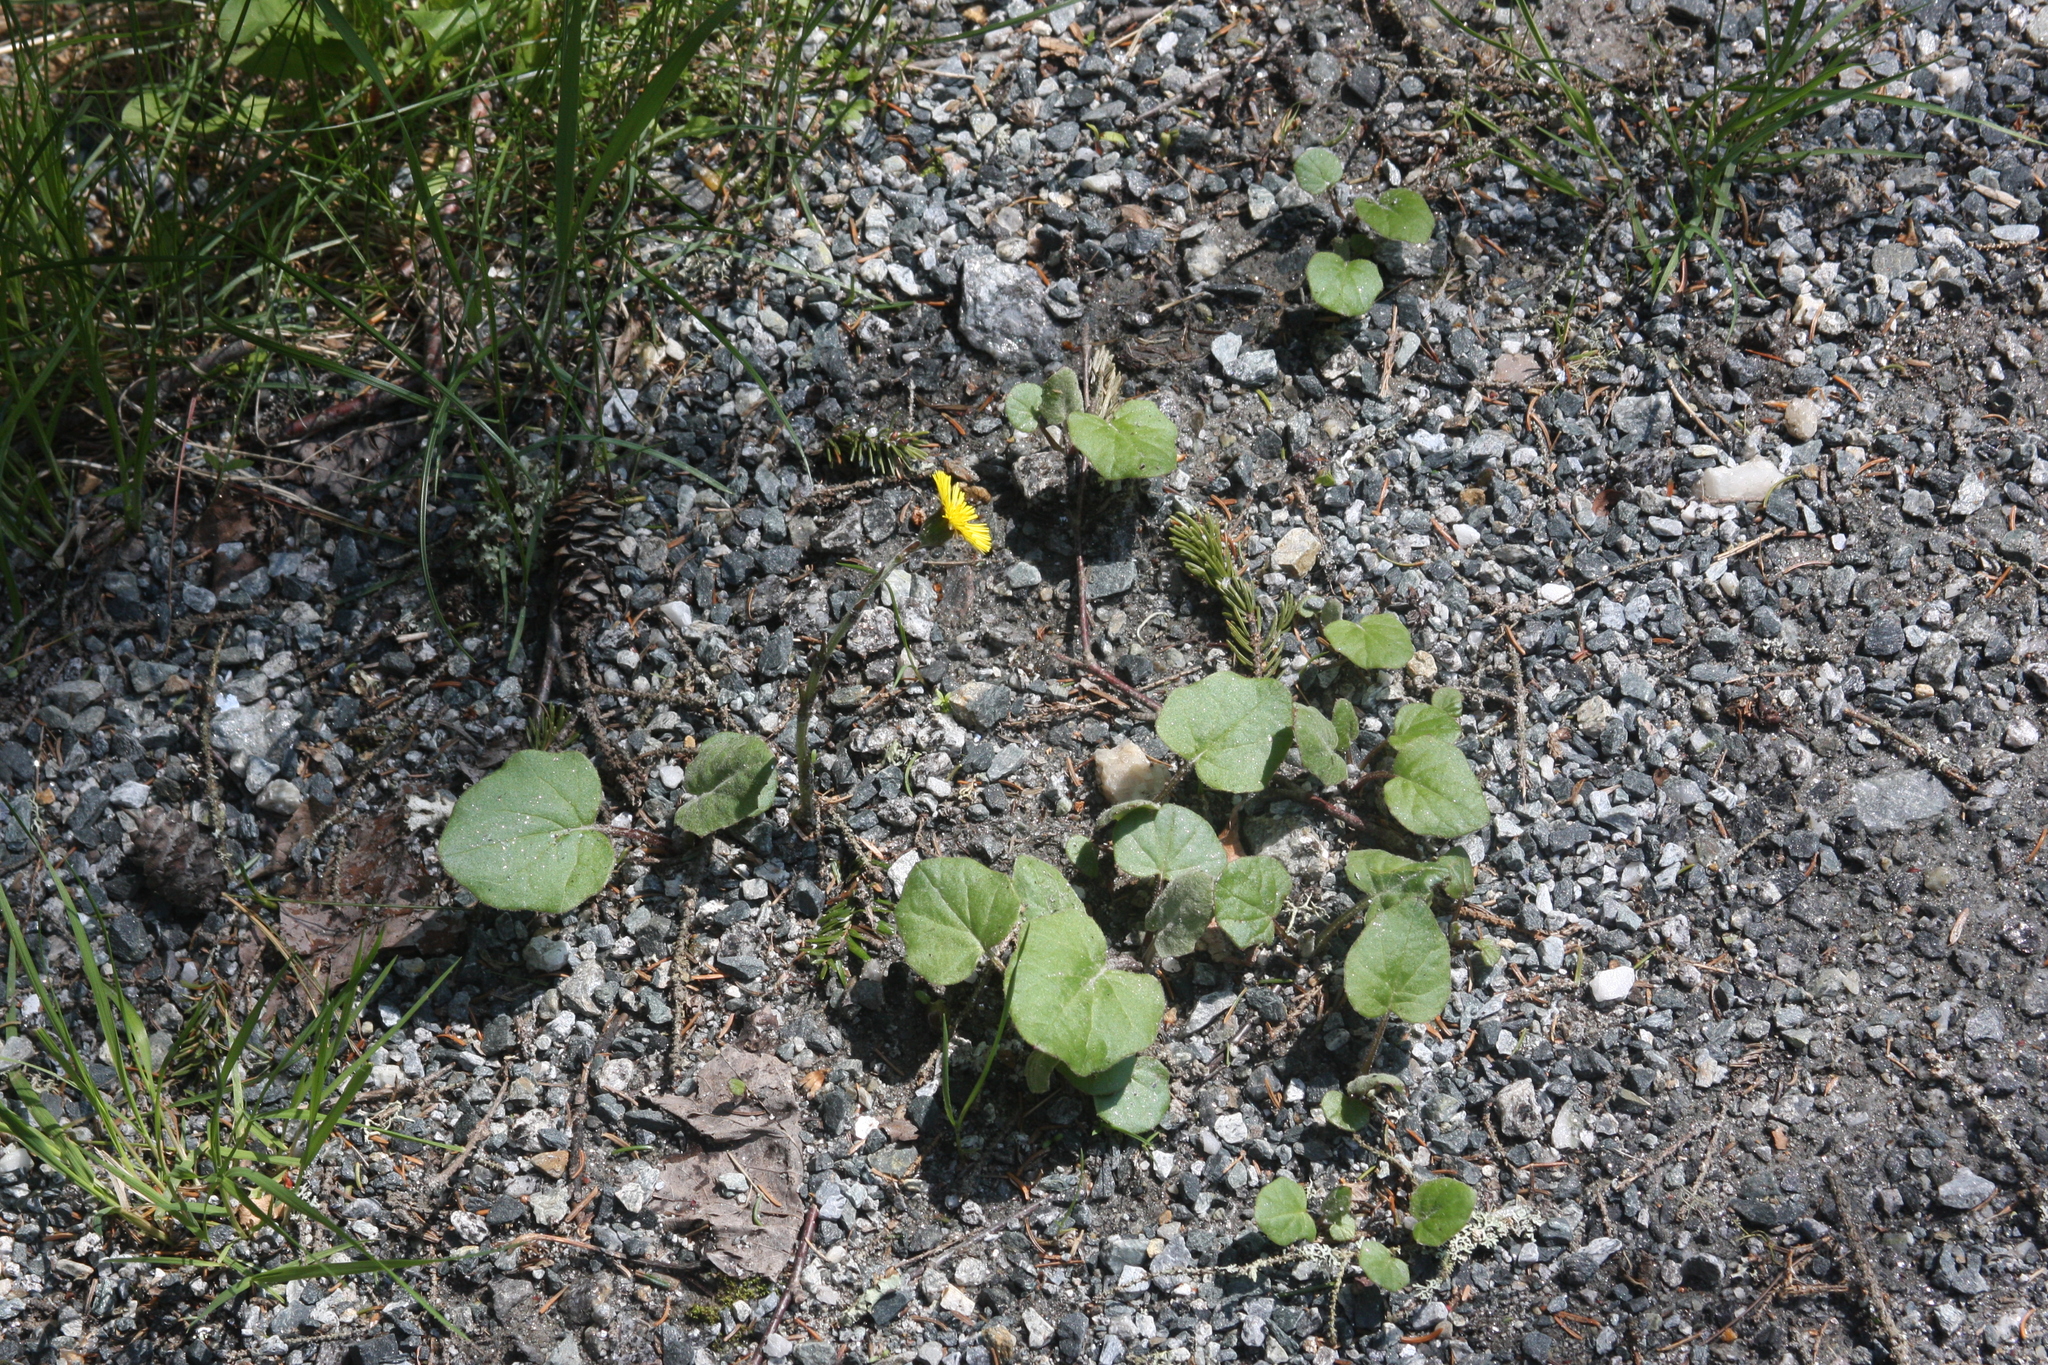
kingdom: Plantae
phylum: Tracheophyta
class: Magnoliopsida
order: Asterales
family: Asteraceae
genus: Tussilago
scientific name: Tussilago farfara
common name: Coltsfoot
